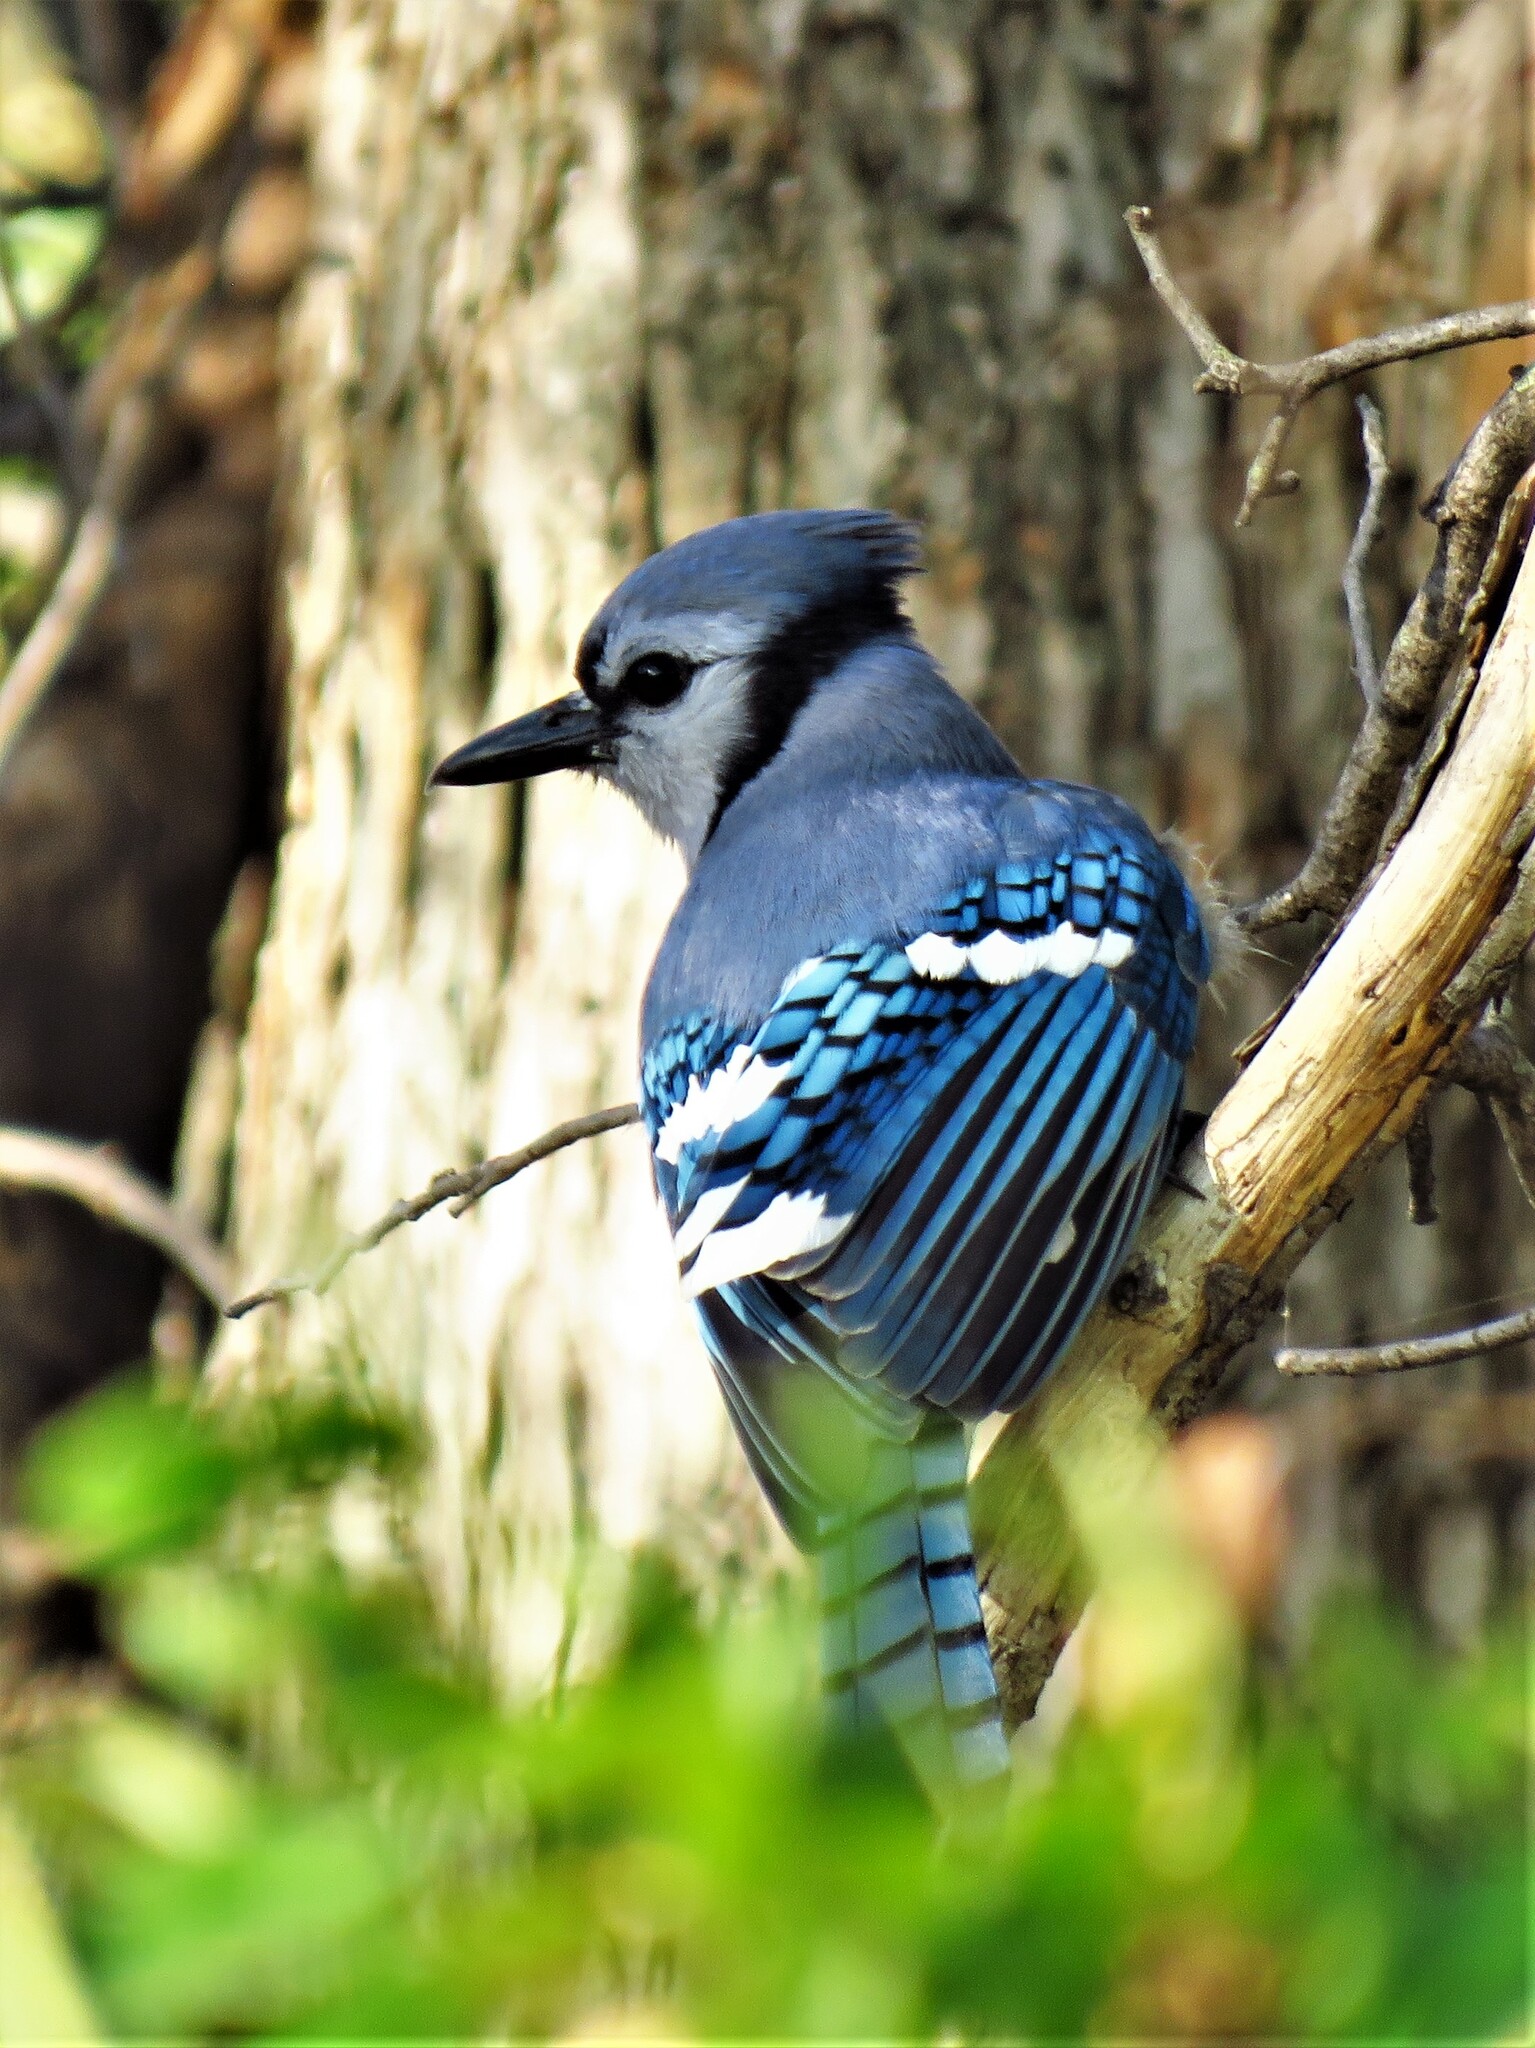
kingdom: Animalia
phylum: Chordata
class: Aves
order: Passeriformes
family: Corvidae
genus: Cyanocitta
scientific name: Cyanocitta cristata
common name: Blue jay
